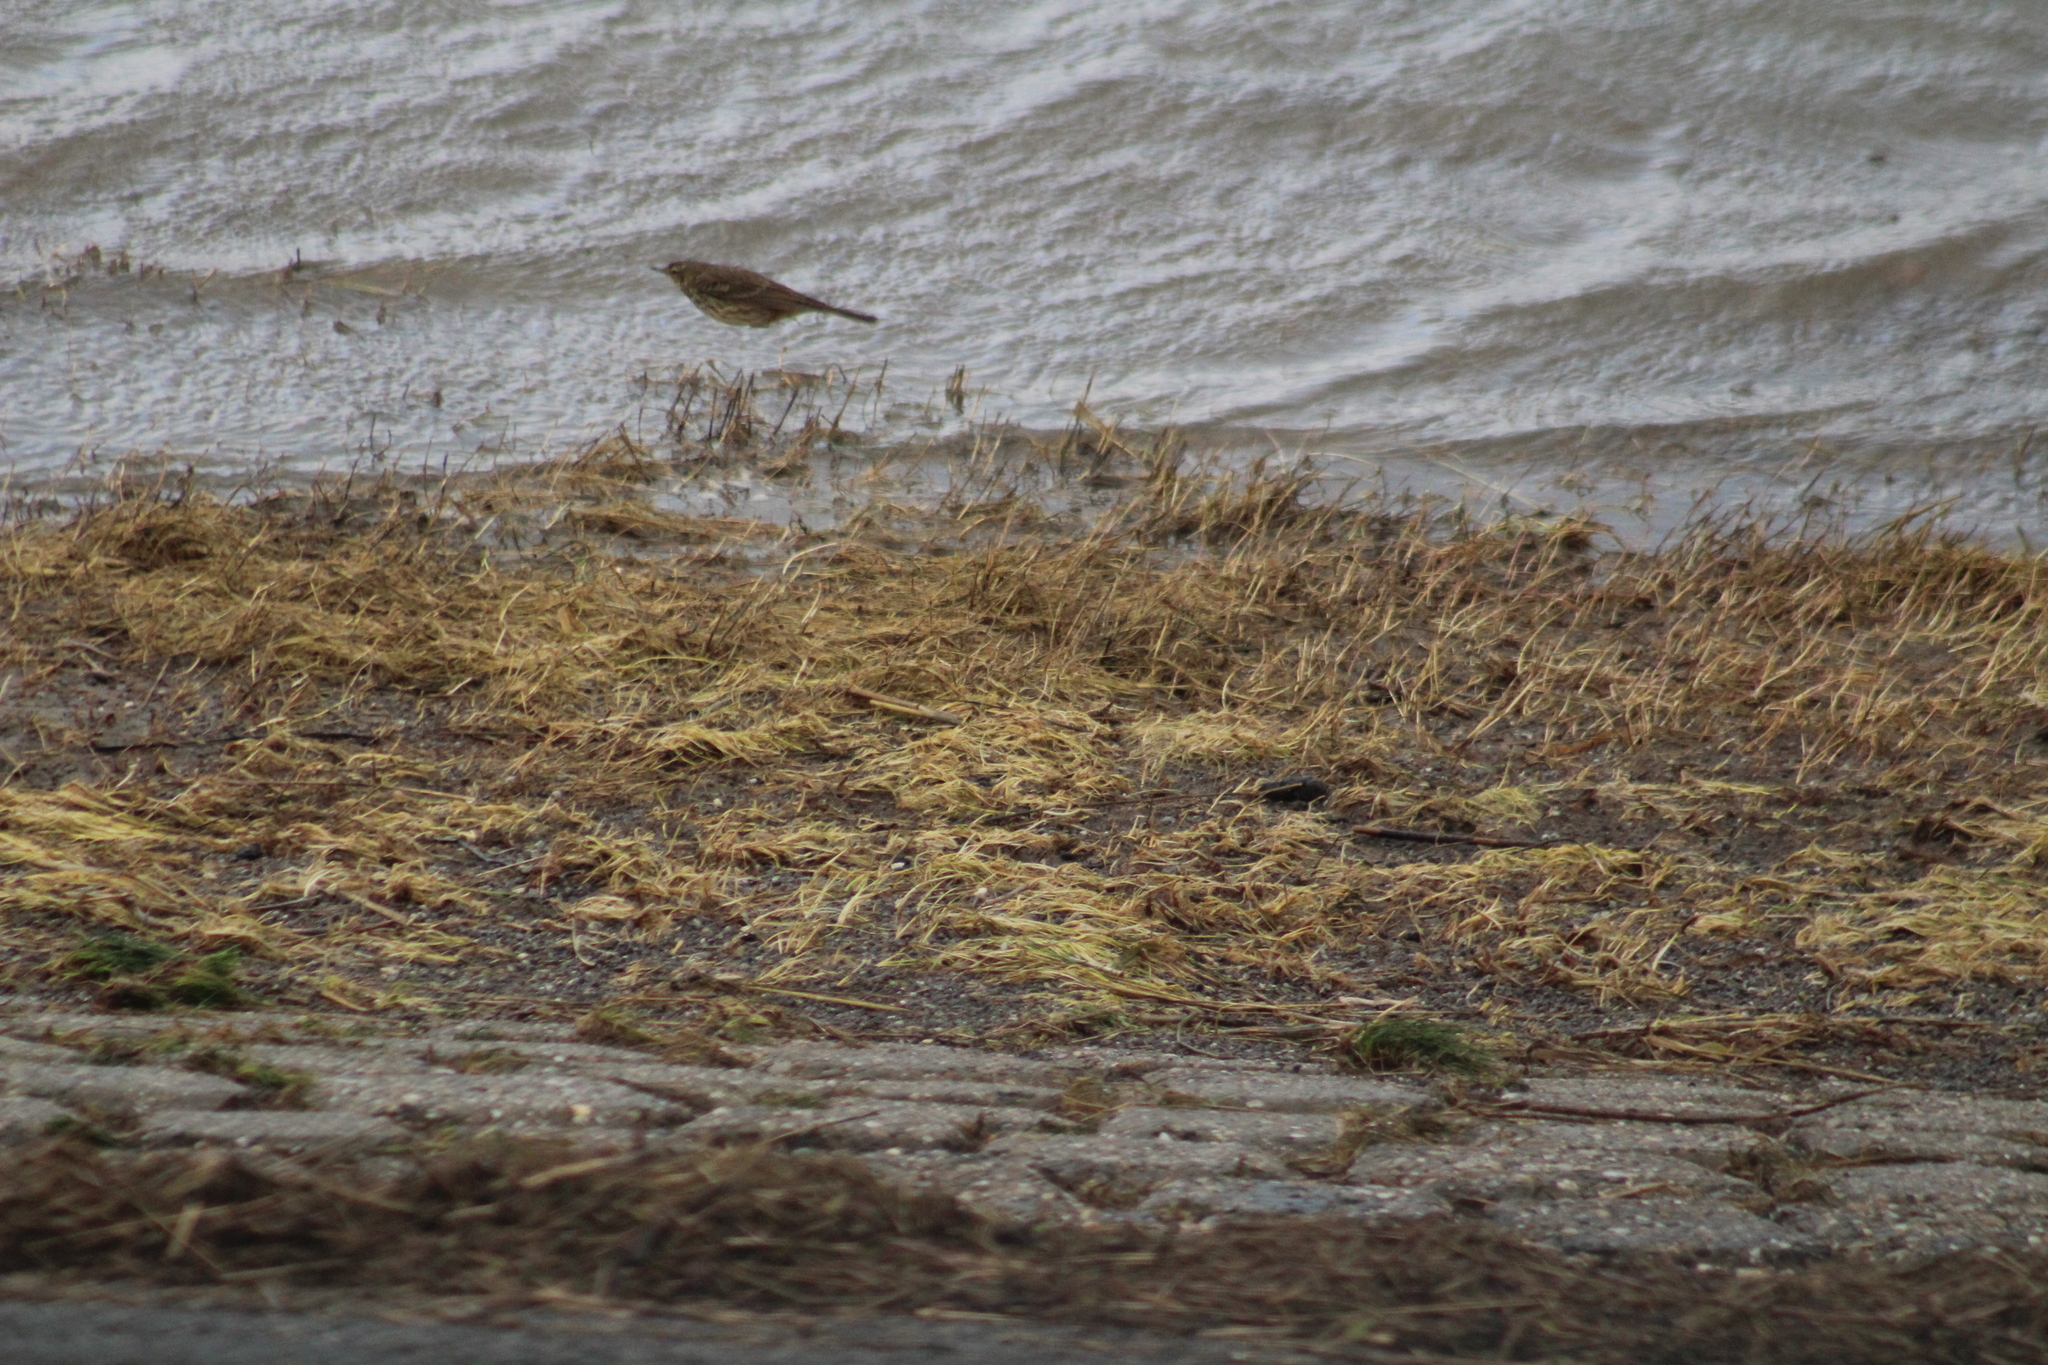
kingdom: Animalia
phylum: Chordata
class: Aves
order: Passeriformes
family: Motacillidae
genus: Anthus
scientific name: Anthus petrosus
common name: Eurasian rock pipit
